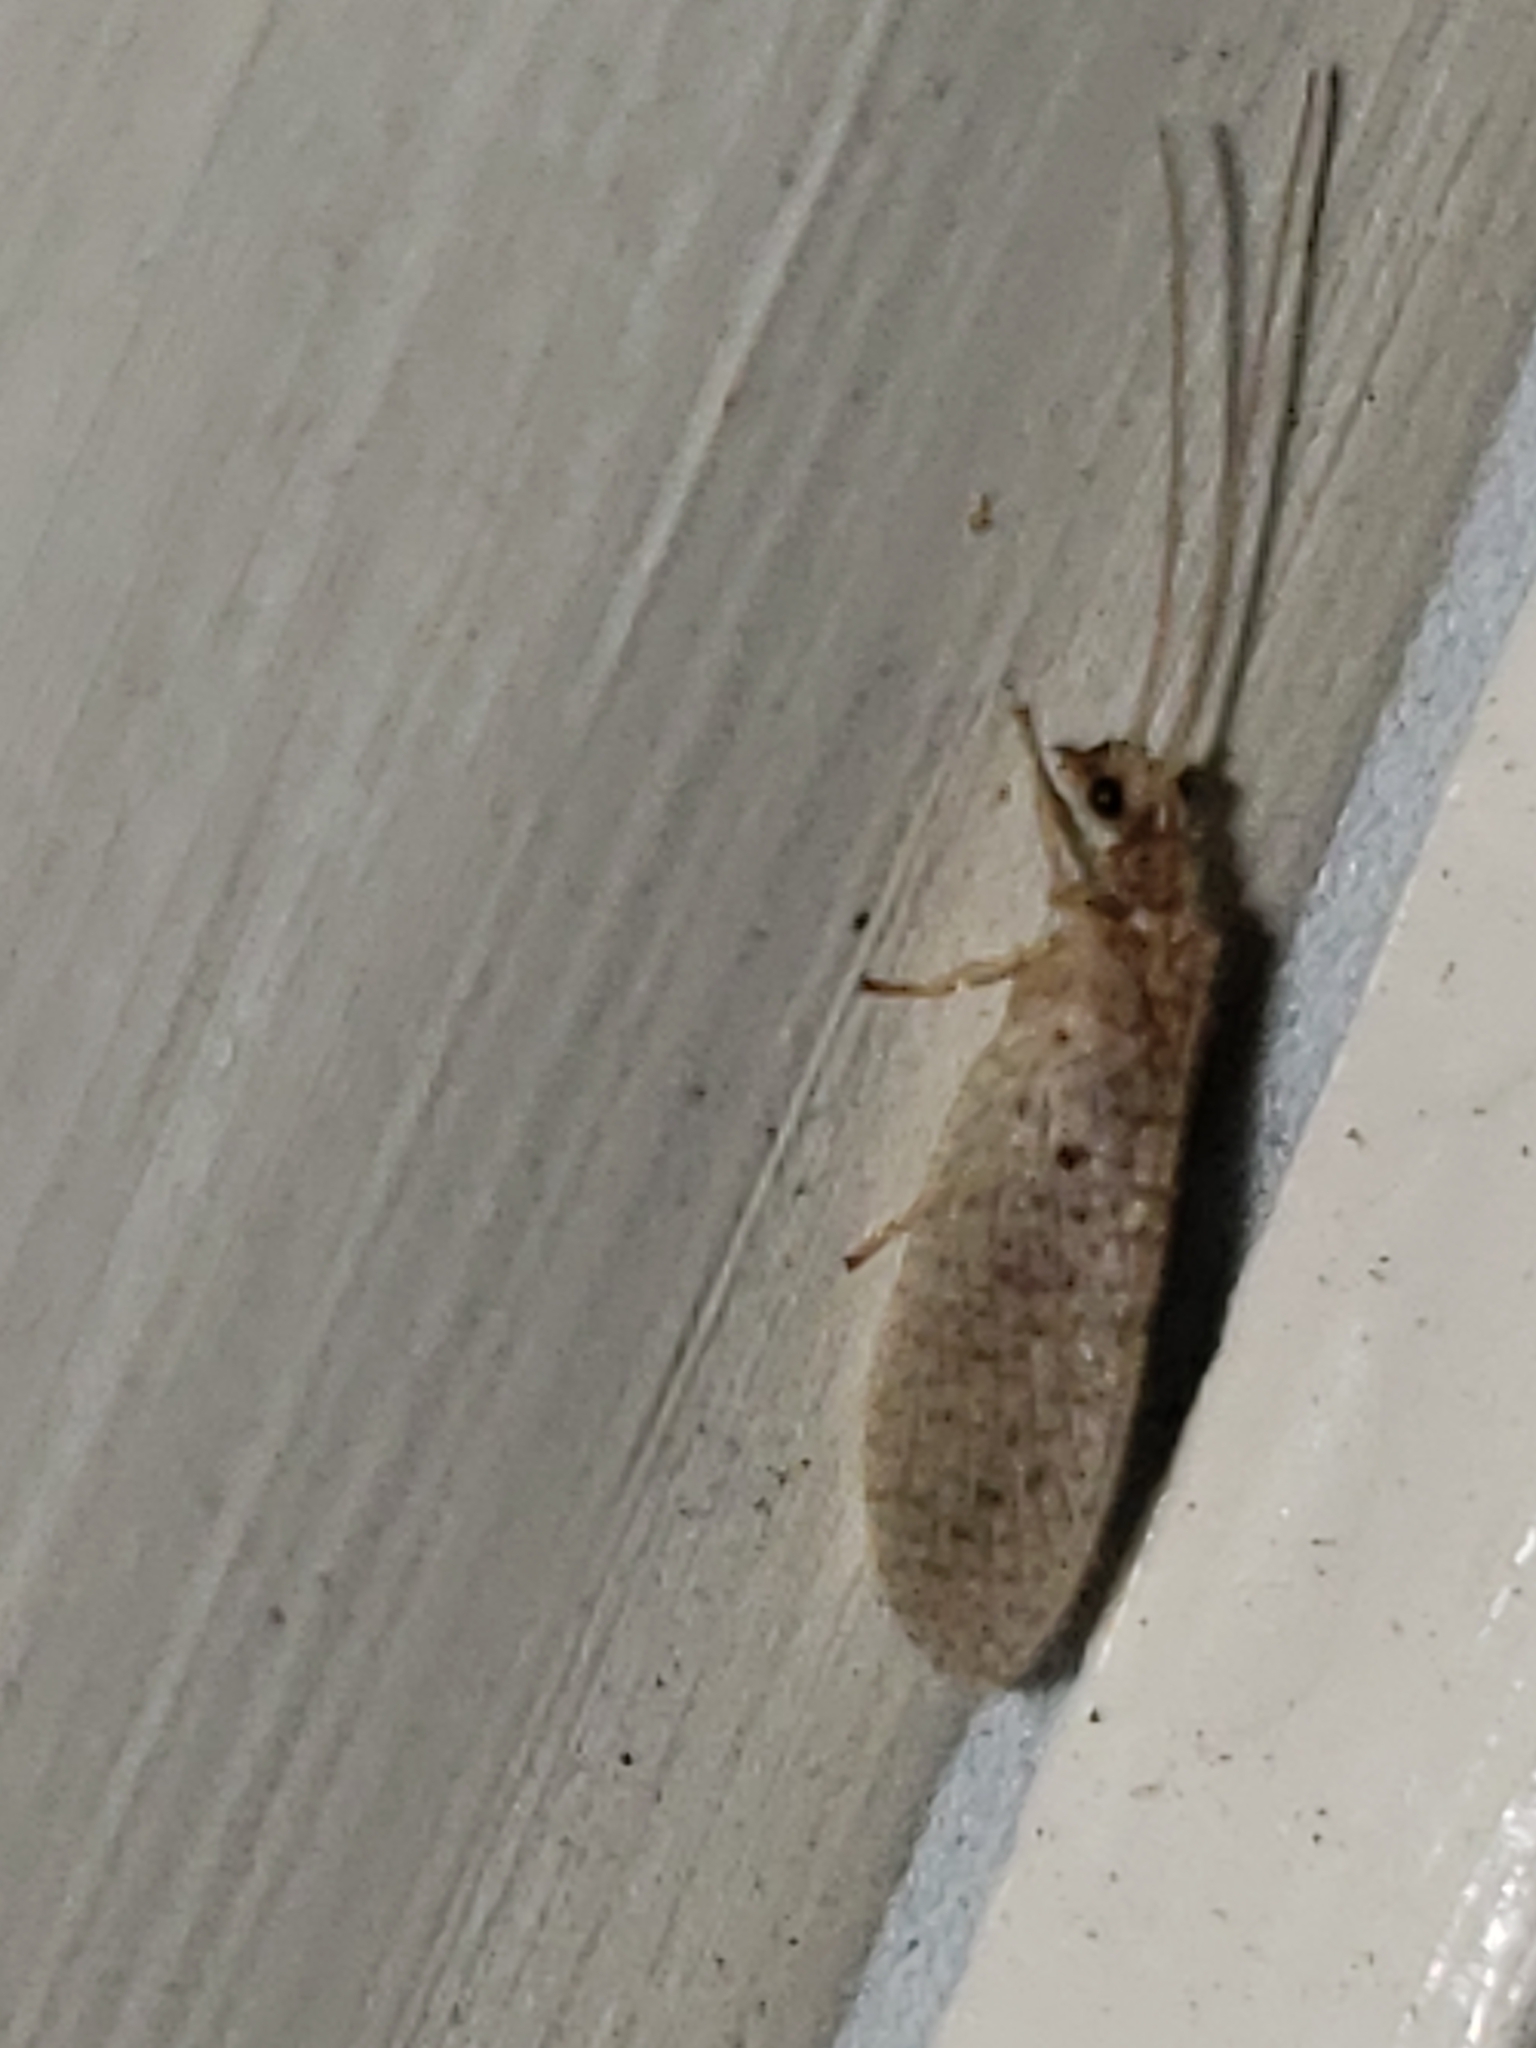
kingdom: Animalia
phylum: Arthropoda
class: Insecta
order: Neuroptera
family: Hemerobiidae
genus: Micromus
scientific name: Micromus subanticus
